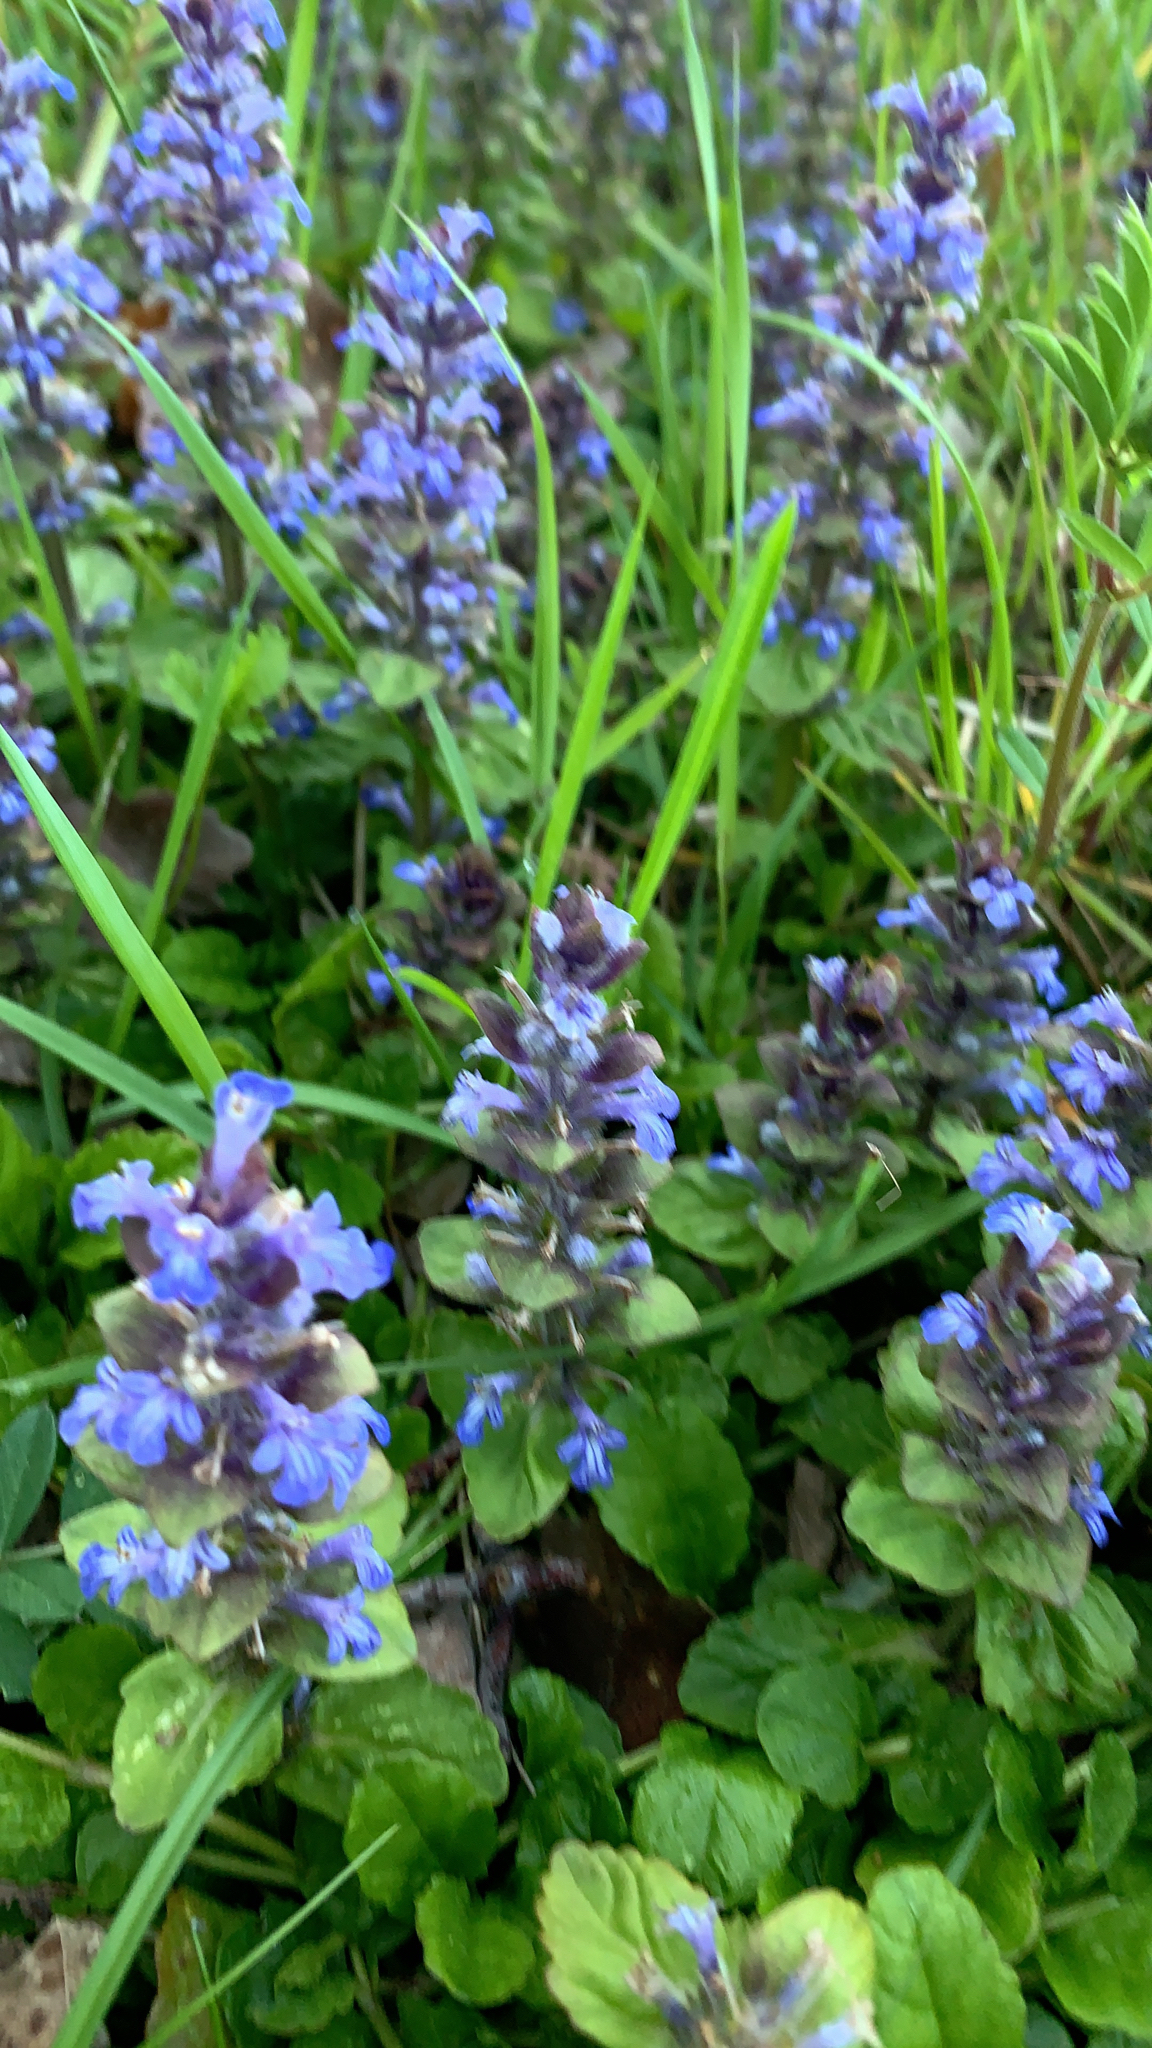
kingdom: Plantae
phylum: Tracheophyta
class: Magnoliopsida
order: Lamiales
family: Lamiaceae
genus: Ajuga
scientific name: Ajuga reptans
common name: Bugle
